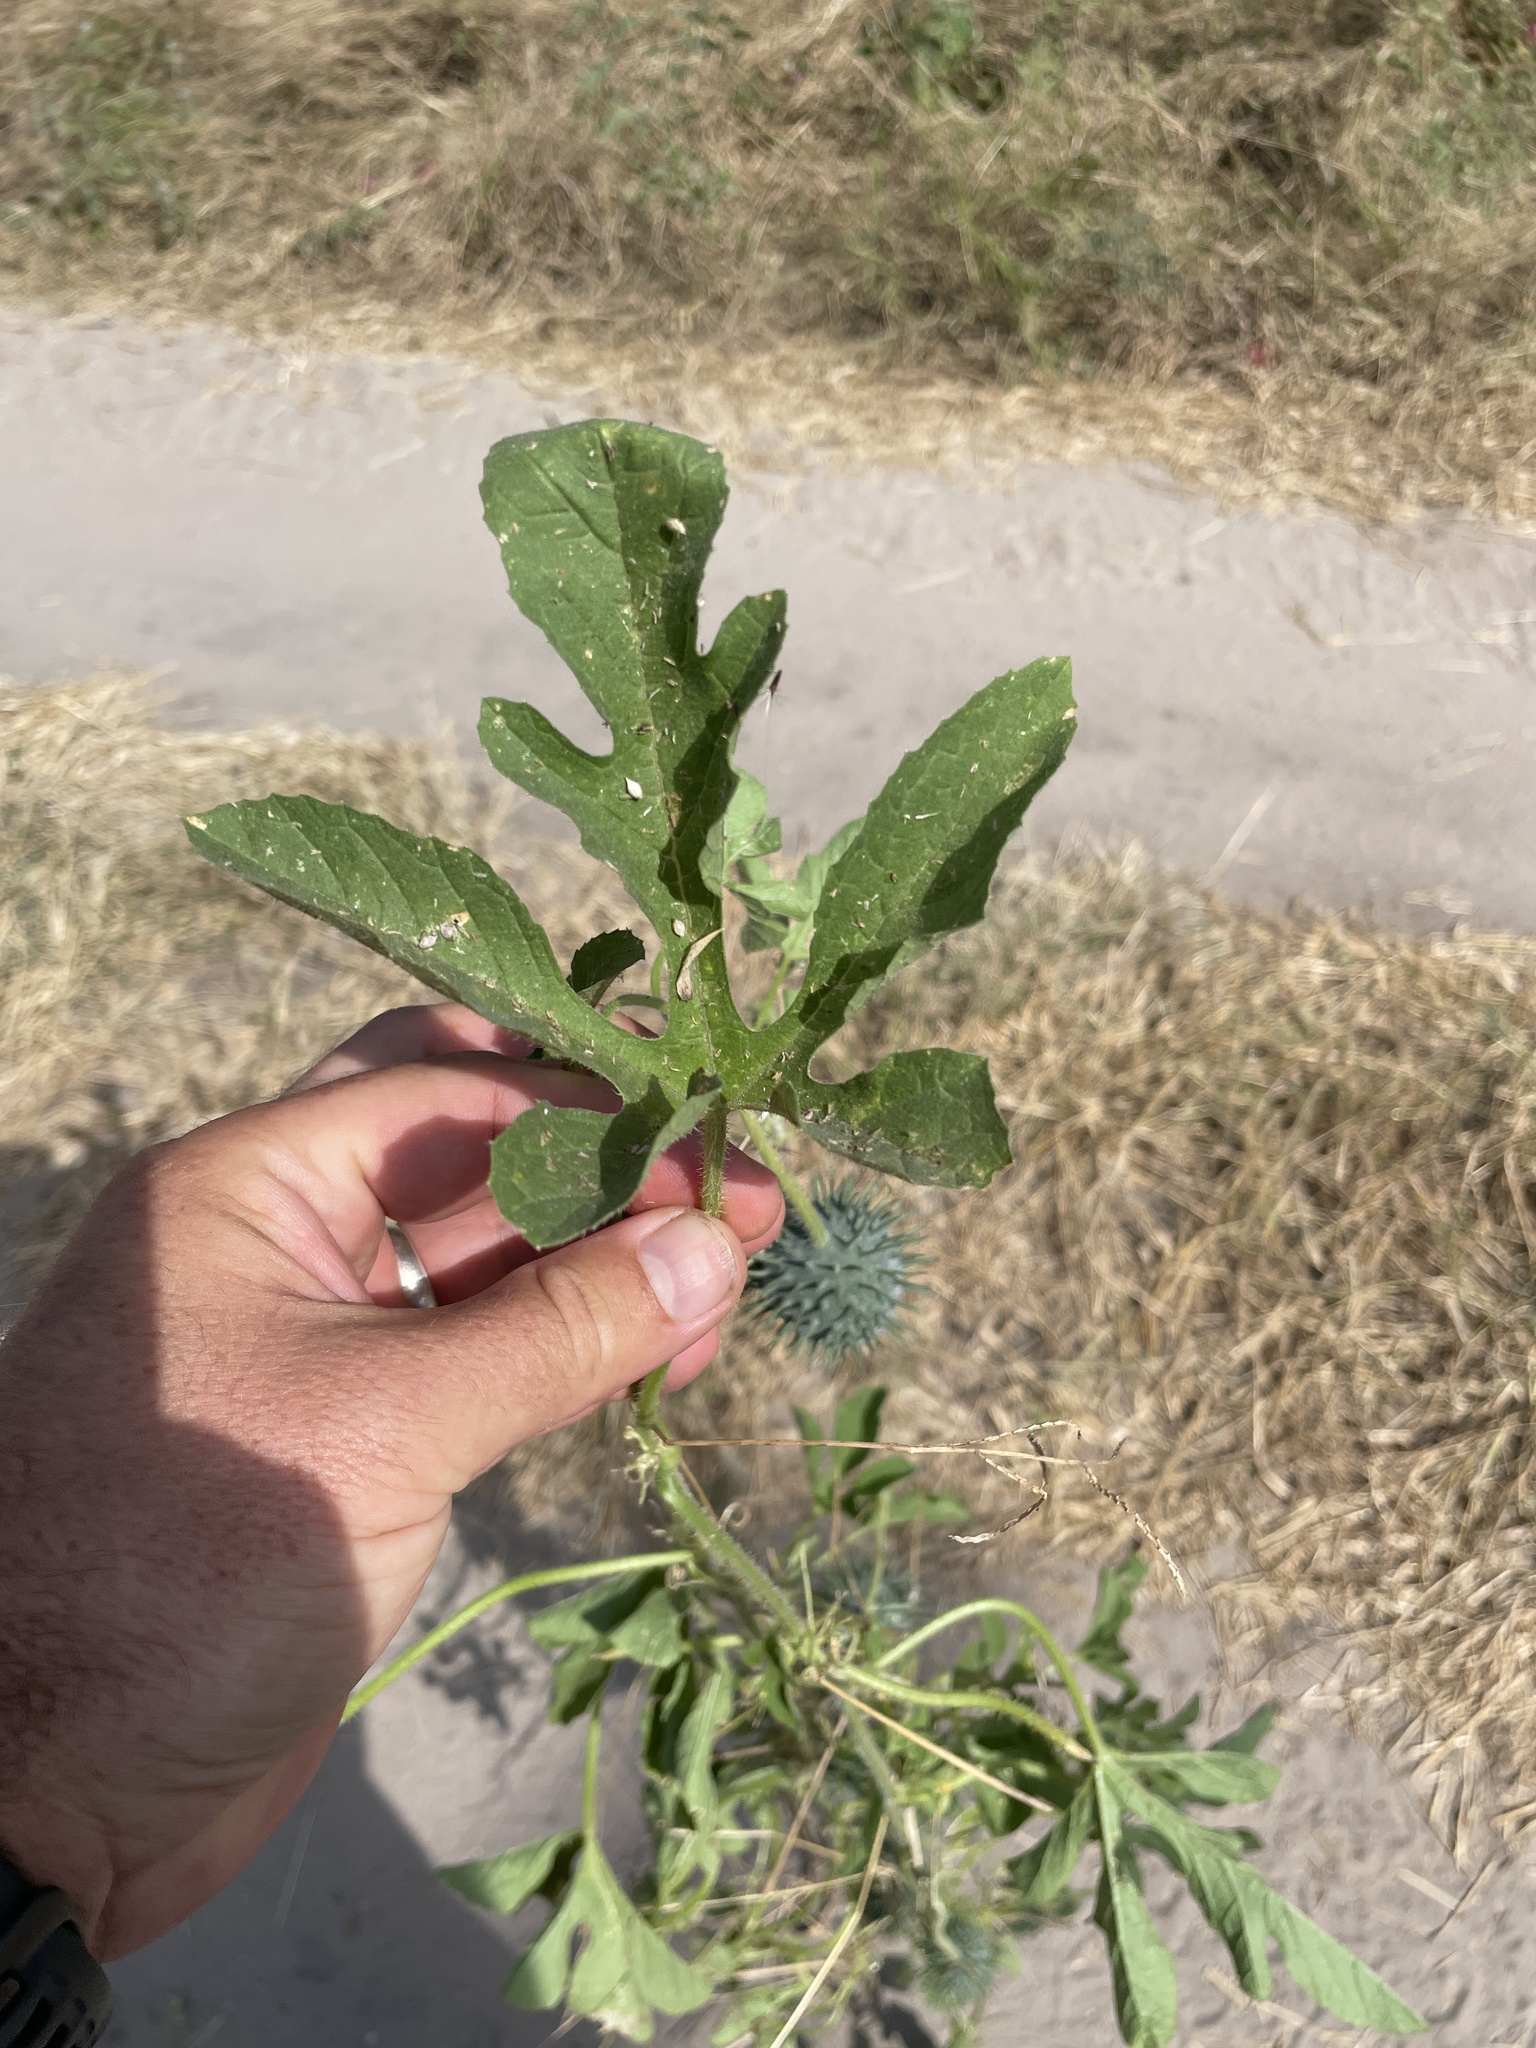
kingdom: Plantae
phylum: Tracheophyta
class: Magnoliopsida
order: Cucurbitales
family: Cucurbitaceae
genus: Cucumis
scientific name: Cucumis anguria
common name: West indian gherkin
